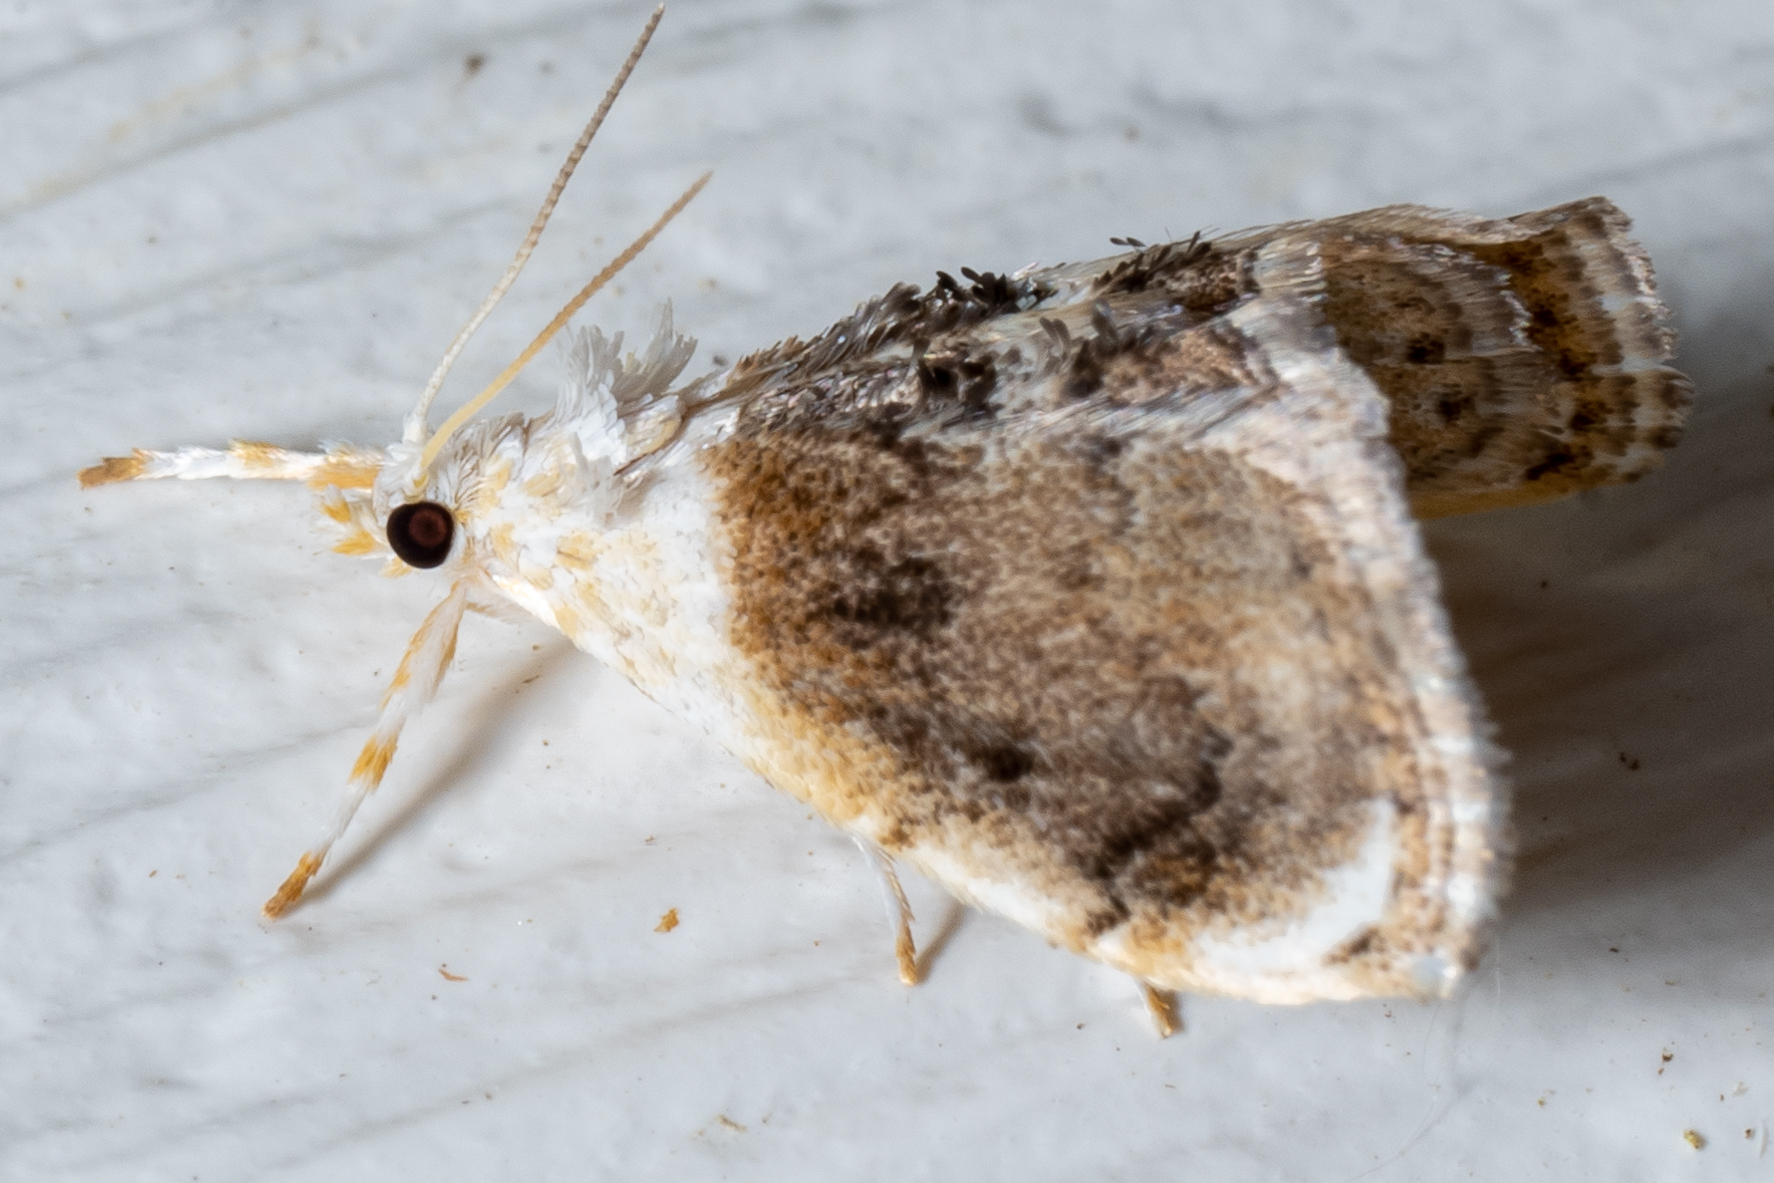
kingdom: Animalia
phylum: Arthropoda
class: Insecta
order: Lepidoptera
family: Crambidae
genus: Lipocosmodes
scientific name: Lipocosmodes fuliginosalis
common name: Sooty lipocosmodes moth
